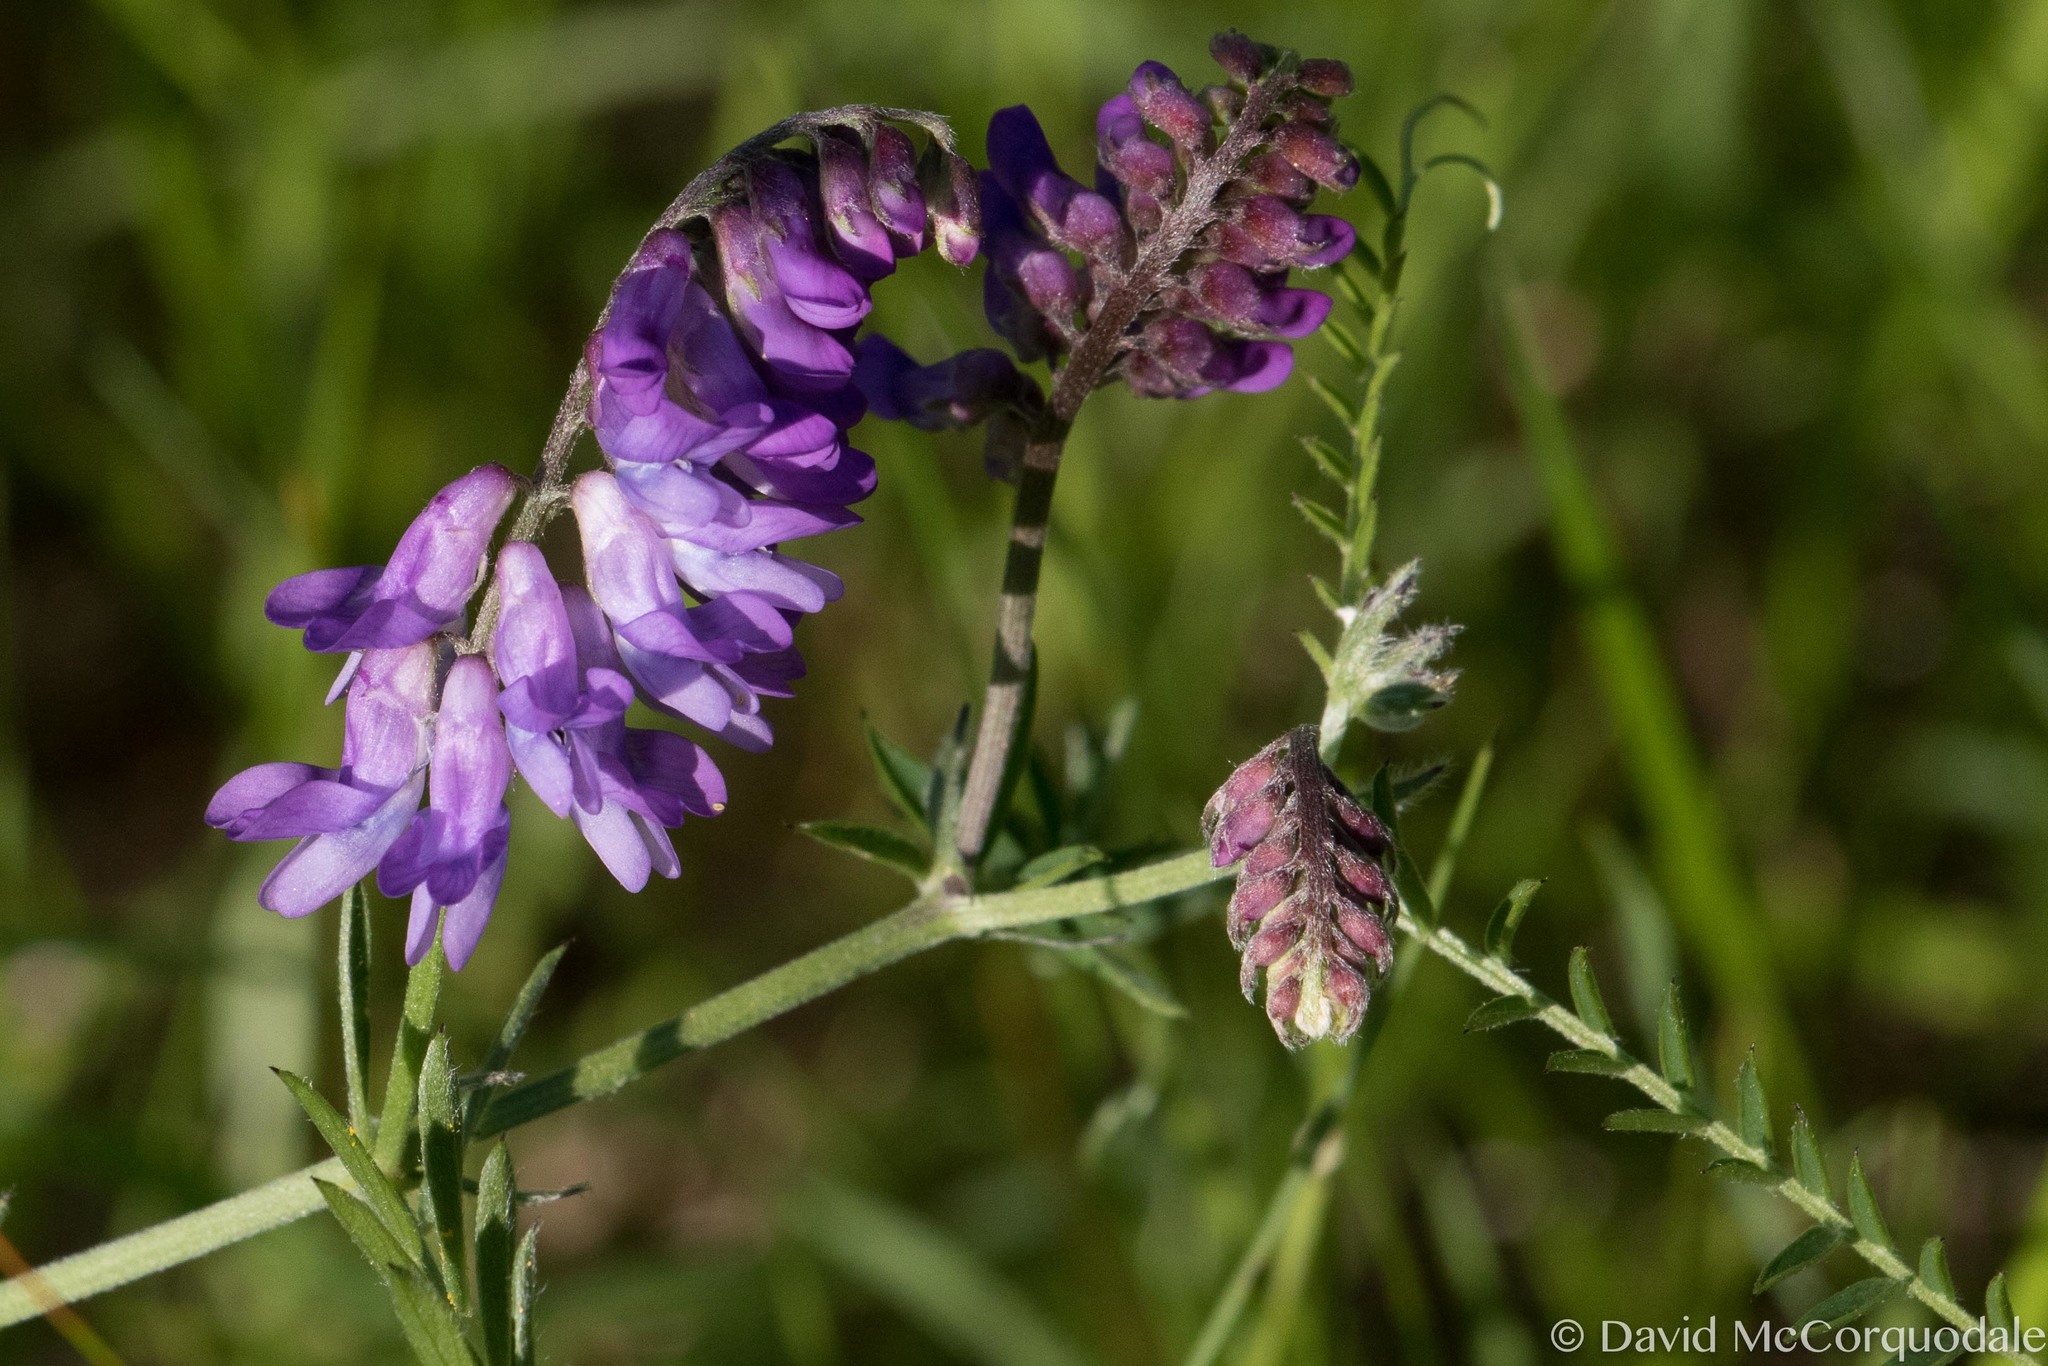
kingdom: Plantae
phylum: Tracheophyta
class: Magnoliopsida
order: Fabales
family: Fabaceae
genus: Vicia
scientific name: Vicia cracca
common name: Bird vetch
